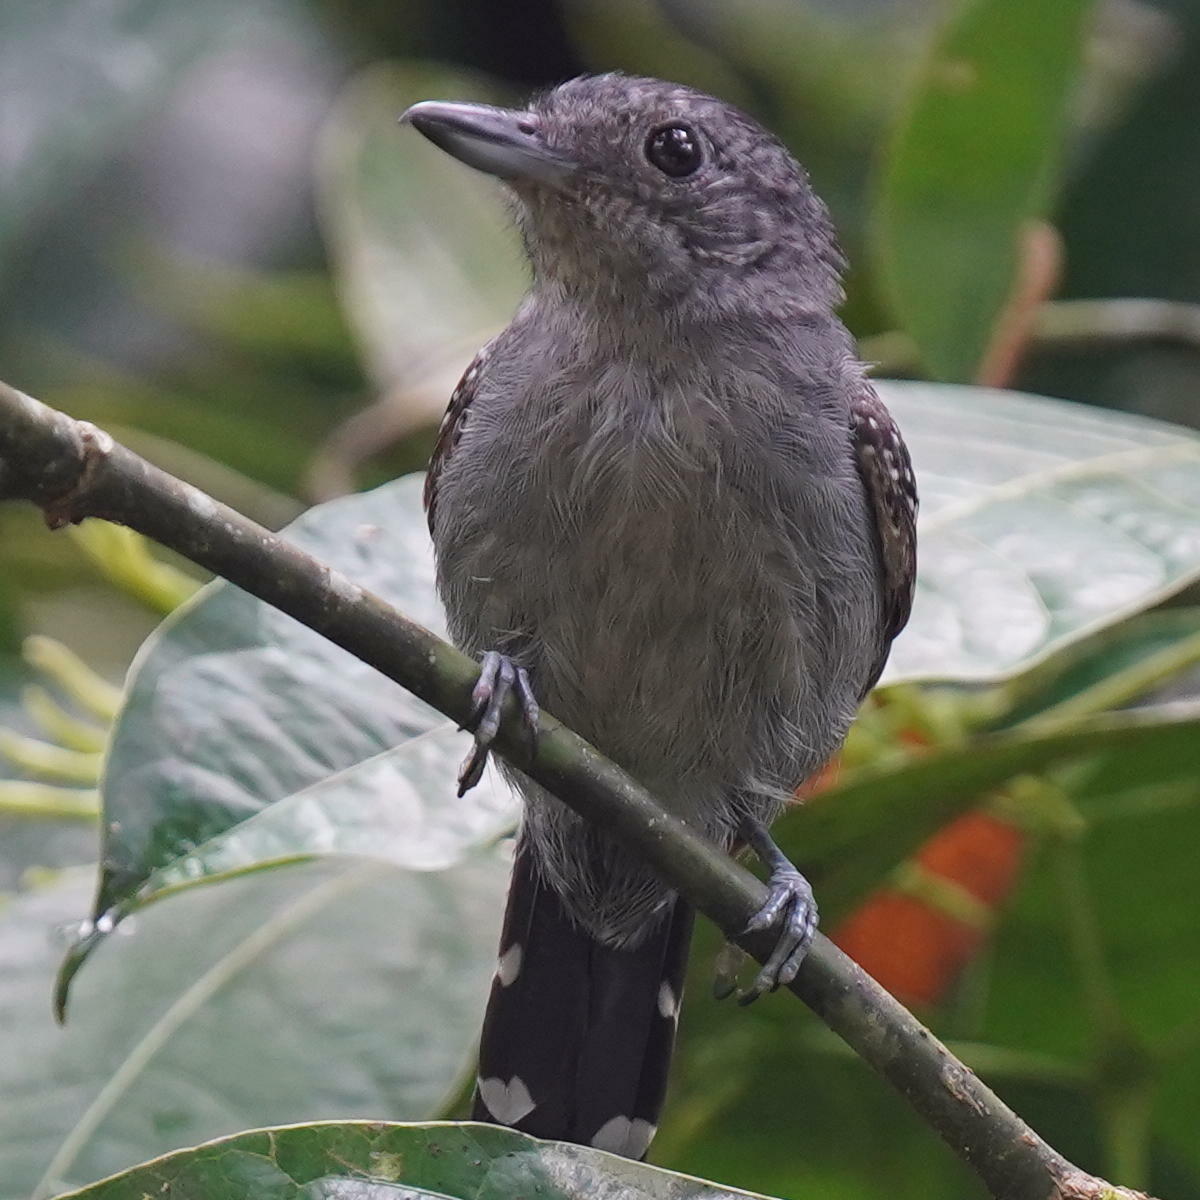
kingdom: Animalia
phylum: Chordata
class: Aves
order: Passeriformes
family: Thamnophilidae
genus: Thamnophilus
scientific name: Thamnophilus atrinucha
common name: Black-crowned antshrike
